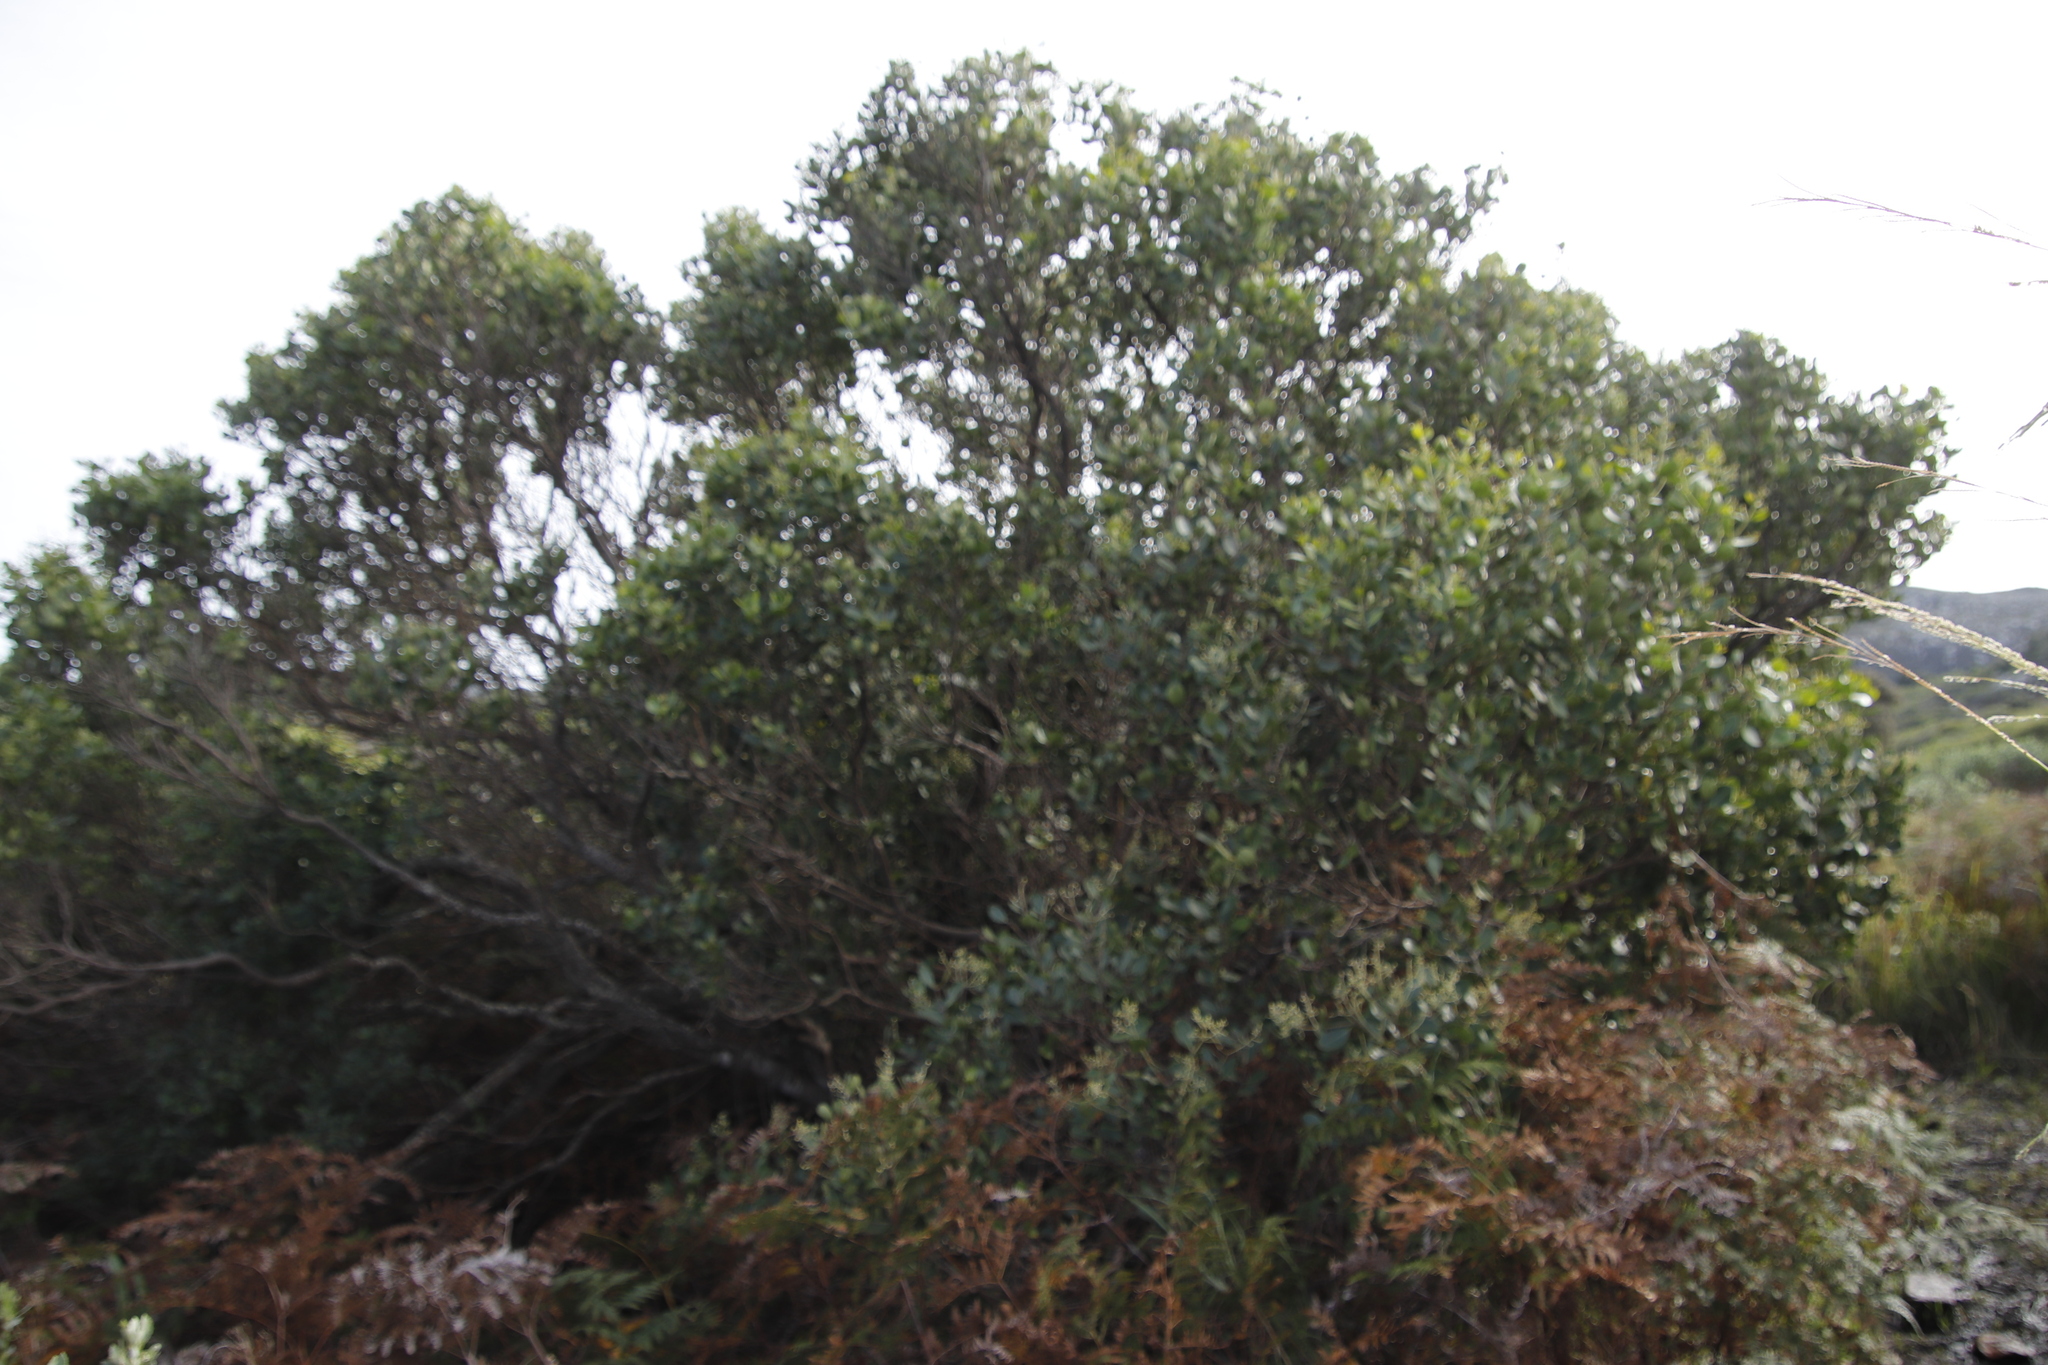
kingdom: Plantae
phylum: Tracheophyta
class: Magnoliopsida
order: Lamiales
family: Oleaceae
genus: Olea
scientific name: Olea capensis
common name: Black ironwood
